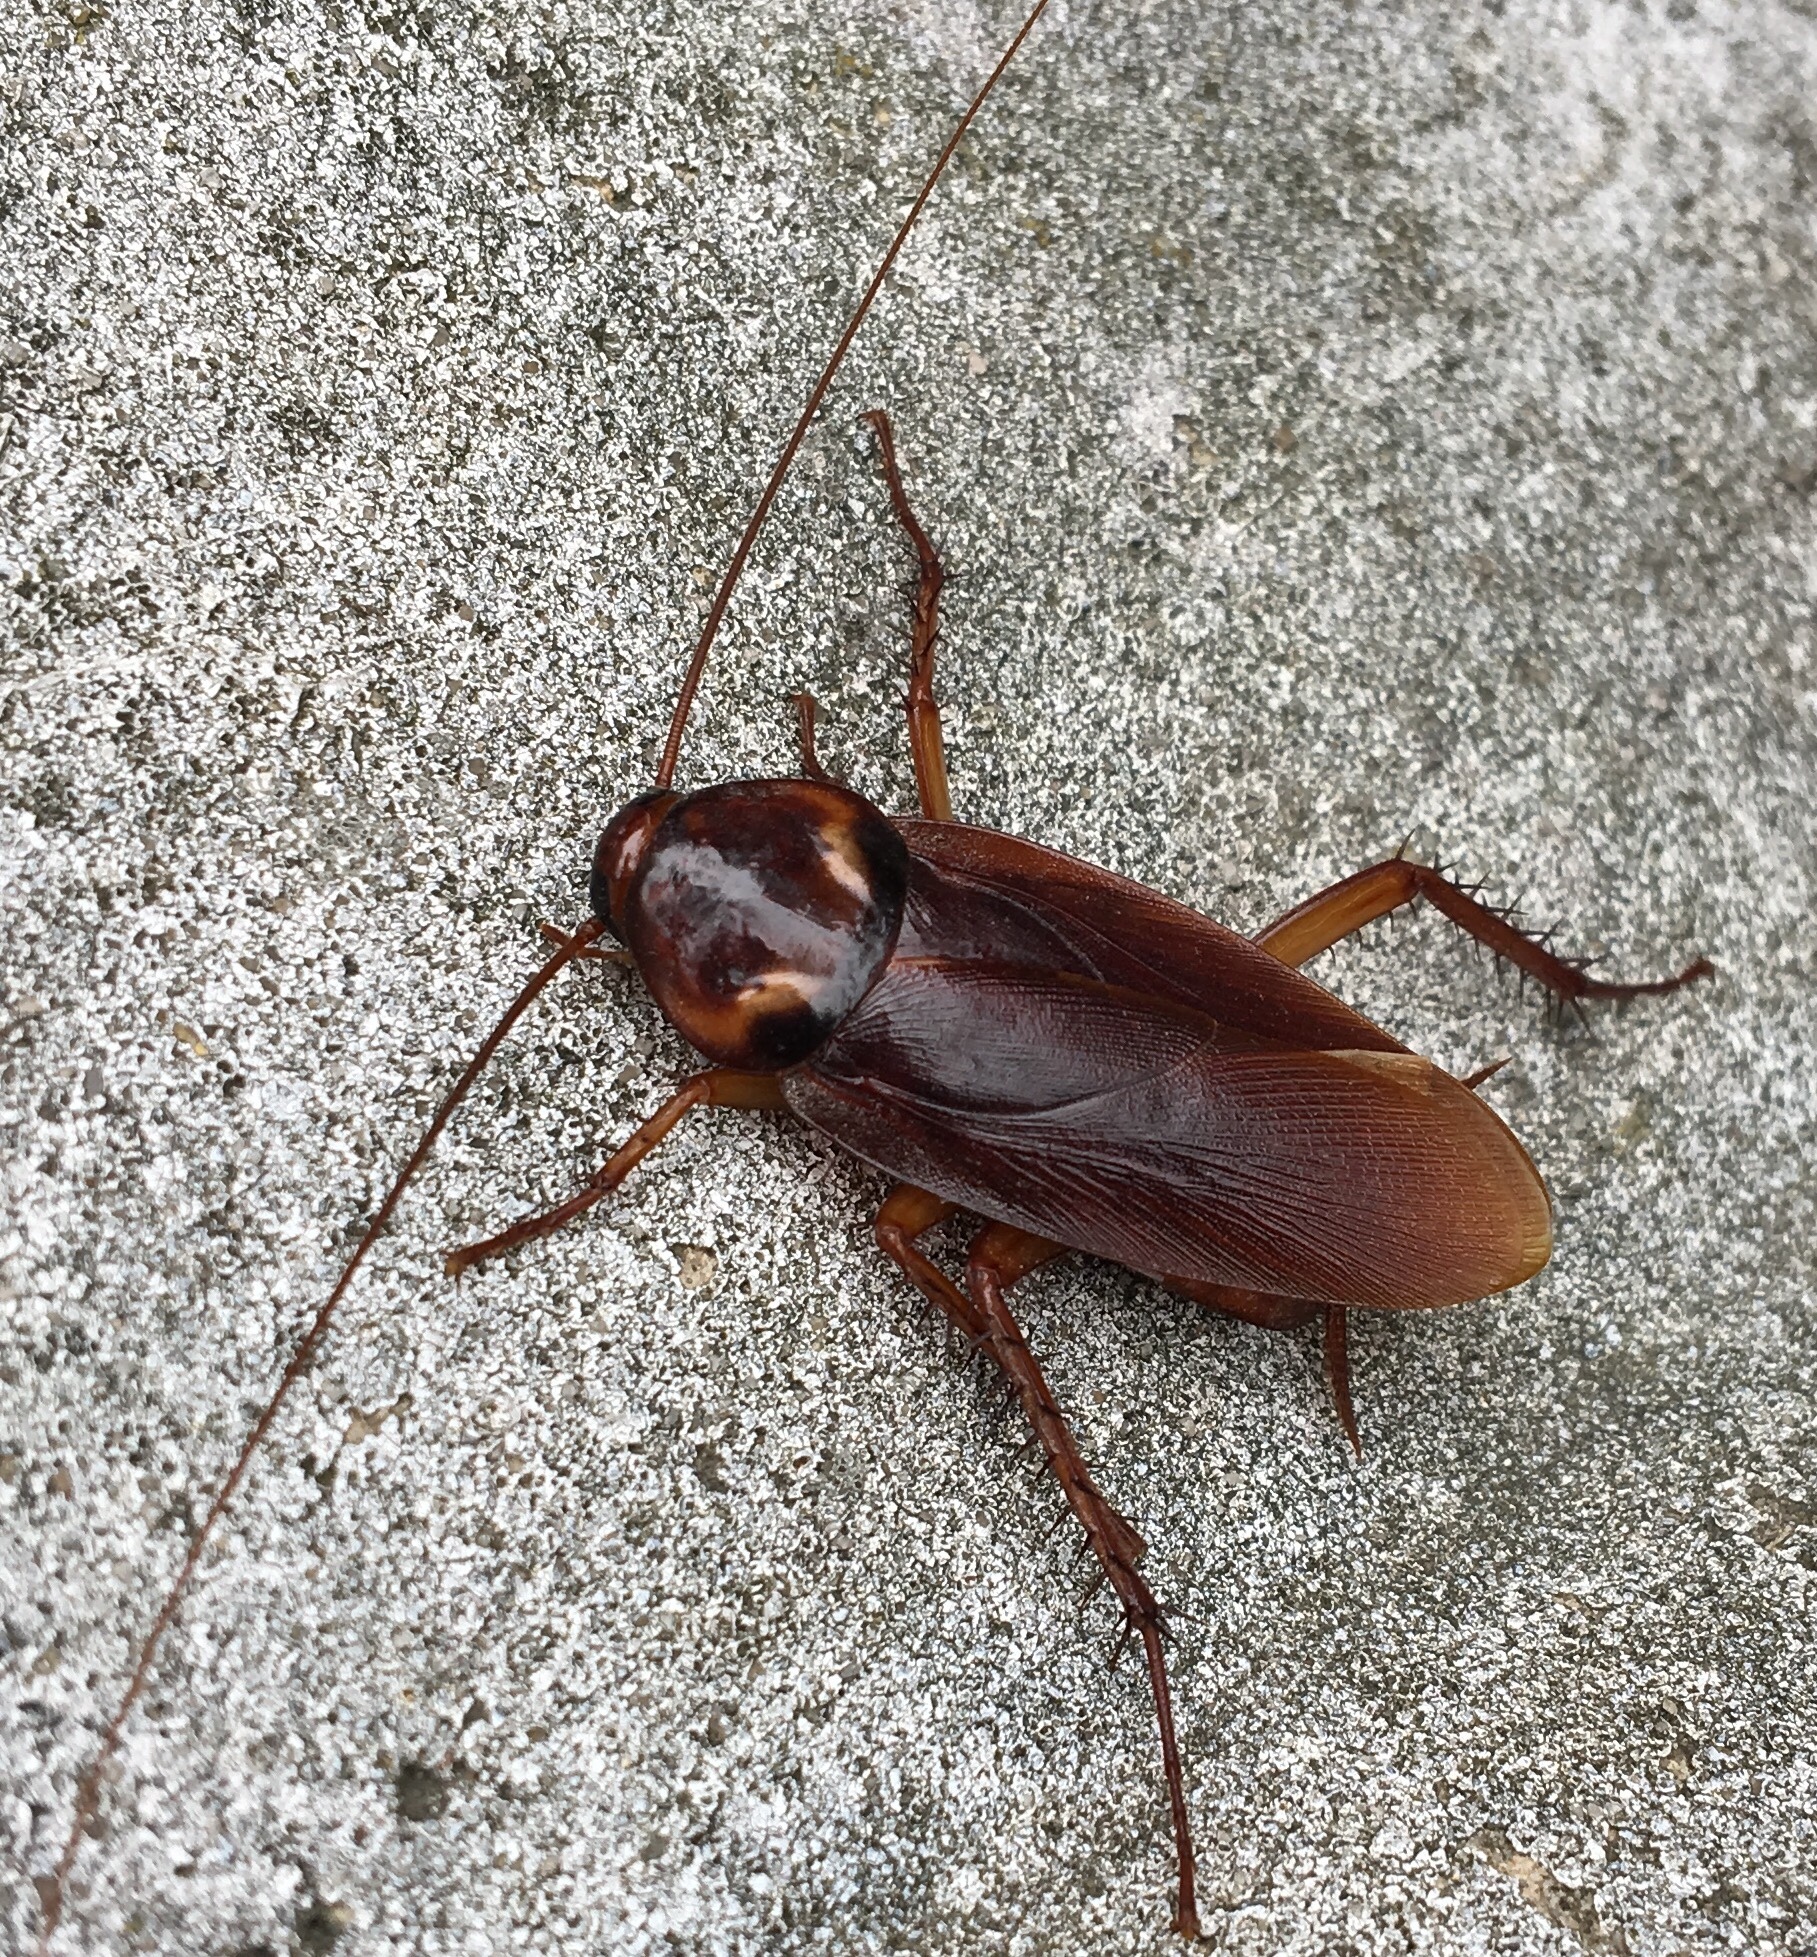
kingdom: Animalia
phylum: Arthropoda
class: Insecta
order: Blattodea
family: Blattidae
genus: Periplaneta
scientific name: Periplaneta americana
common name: American cockroach
